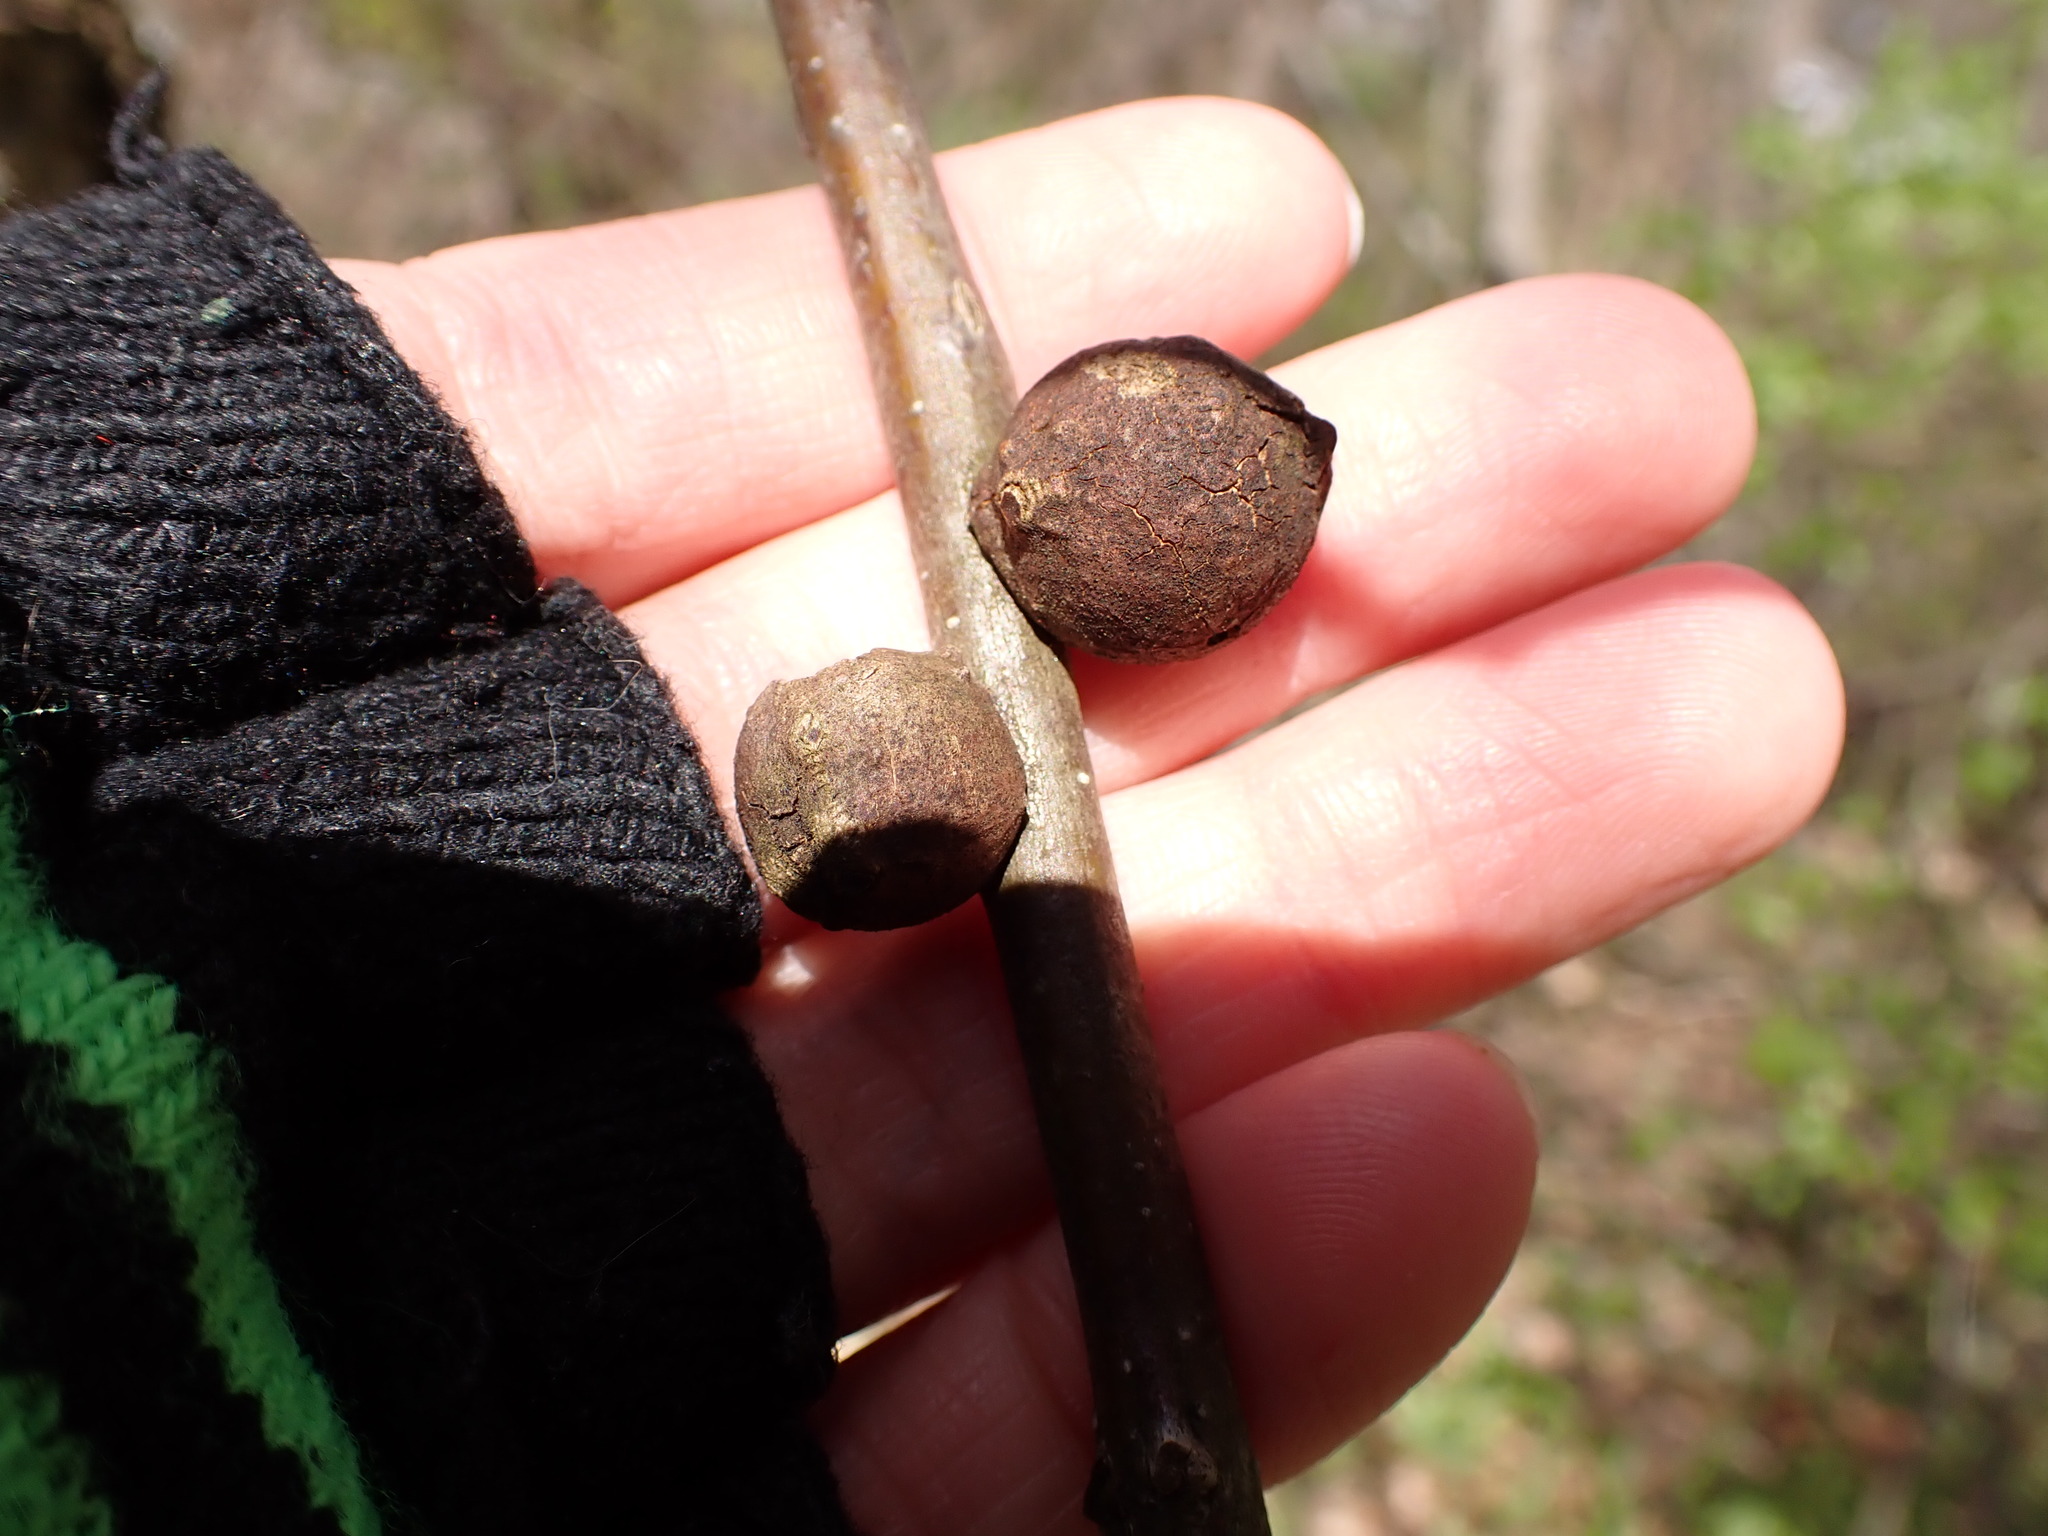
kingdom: Animalia
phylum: Arthropoda
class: Insecta
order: Hymenoptera
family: Cynipidae
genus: Disholcaspis
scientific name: Disholcaspis
